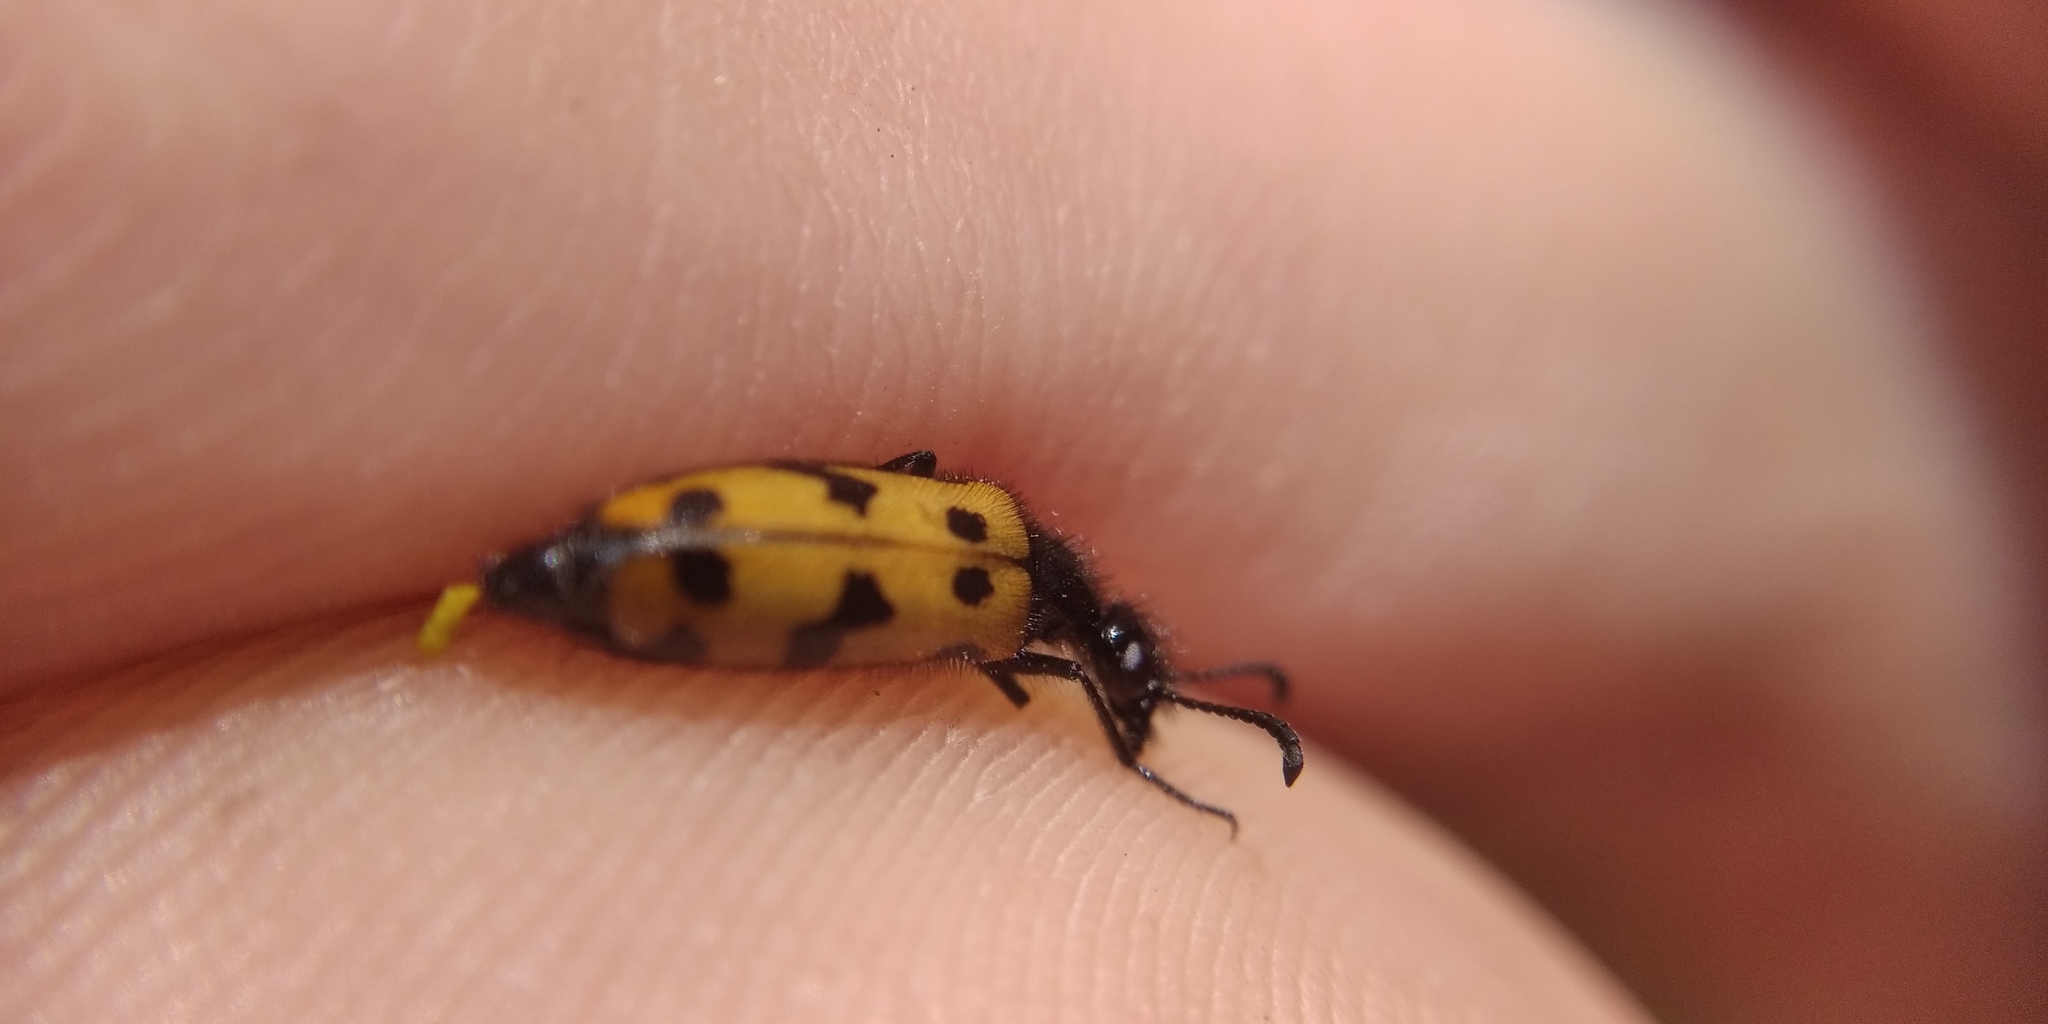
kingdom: Animalia
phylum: Arthropoda
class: Insecta
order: Coleoptera
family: Meloidae
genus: Mylabris
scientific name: Mylabris geminata
